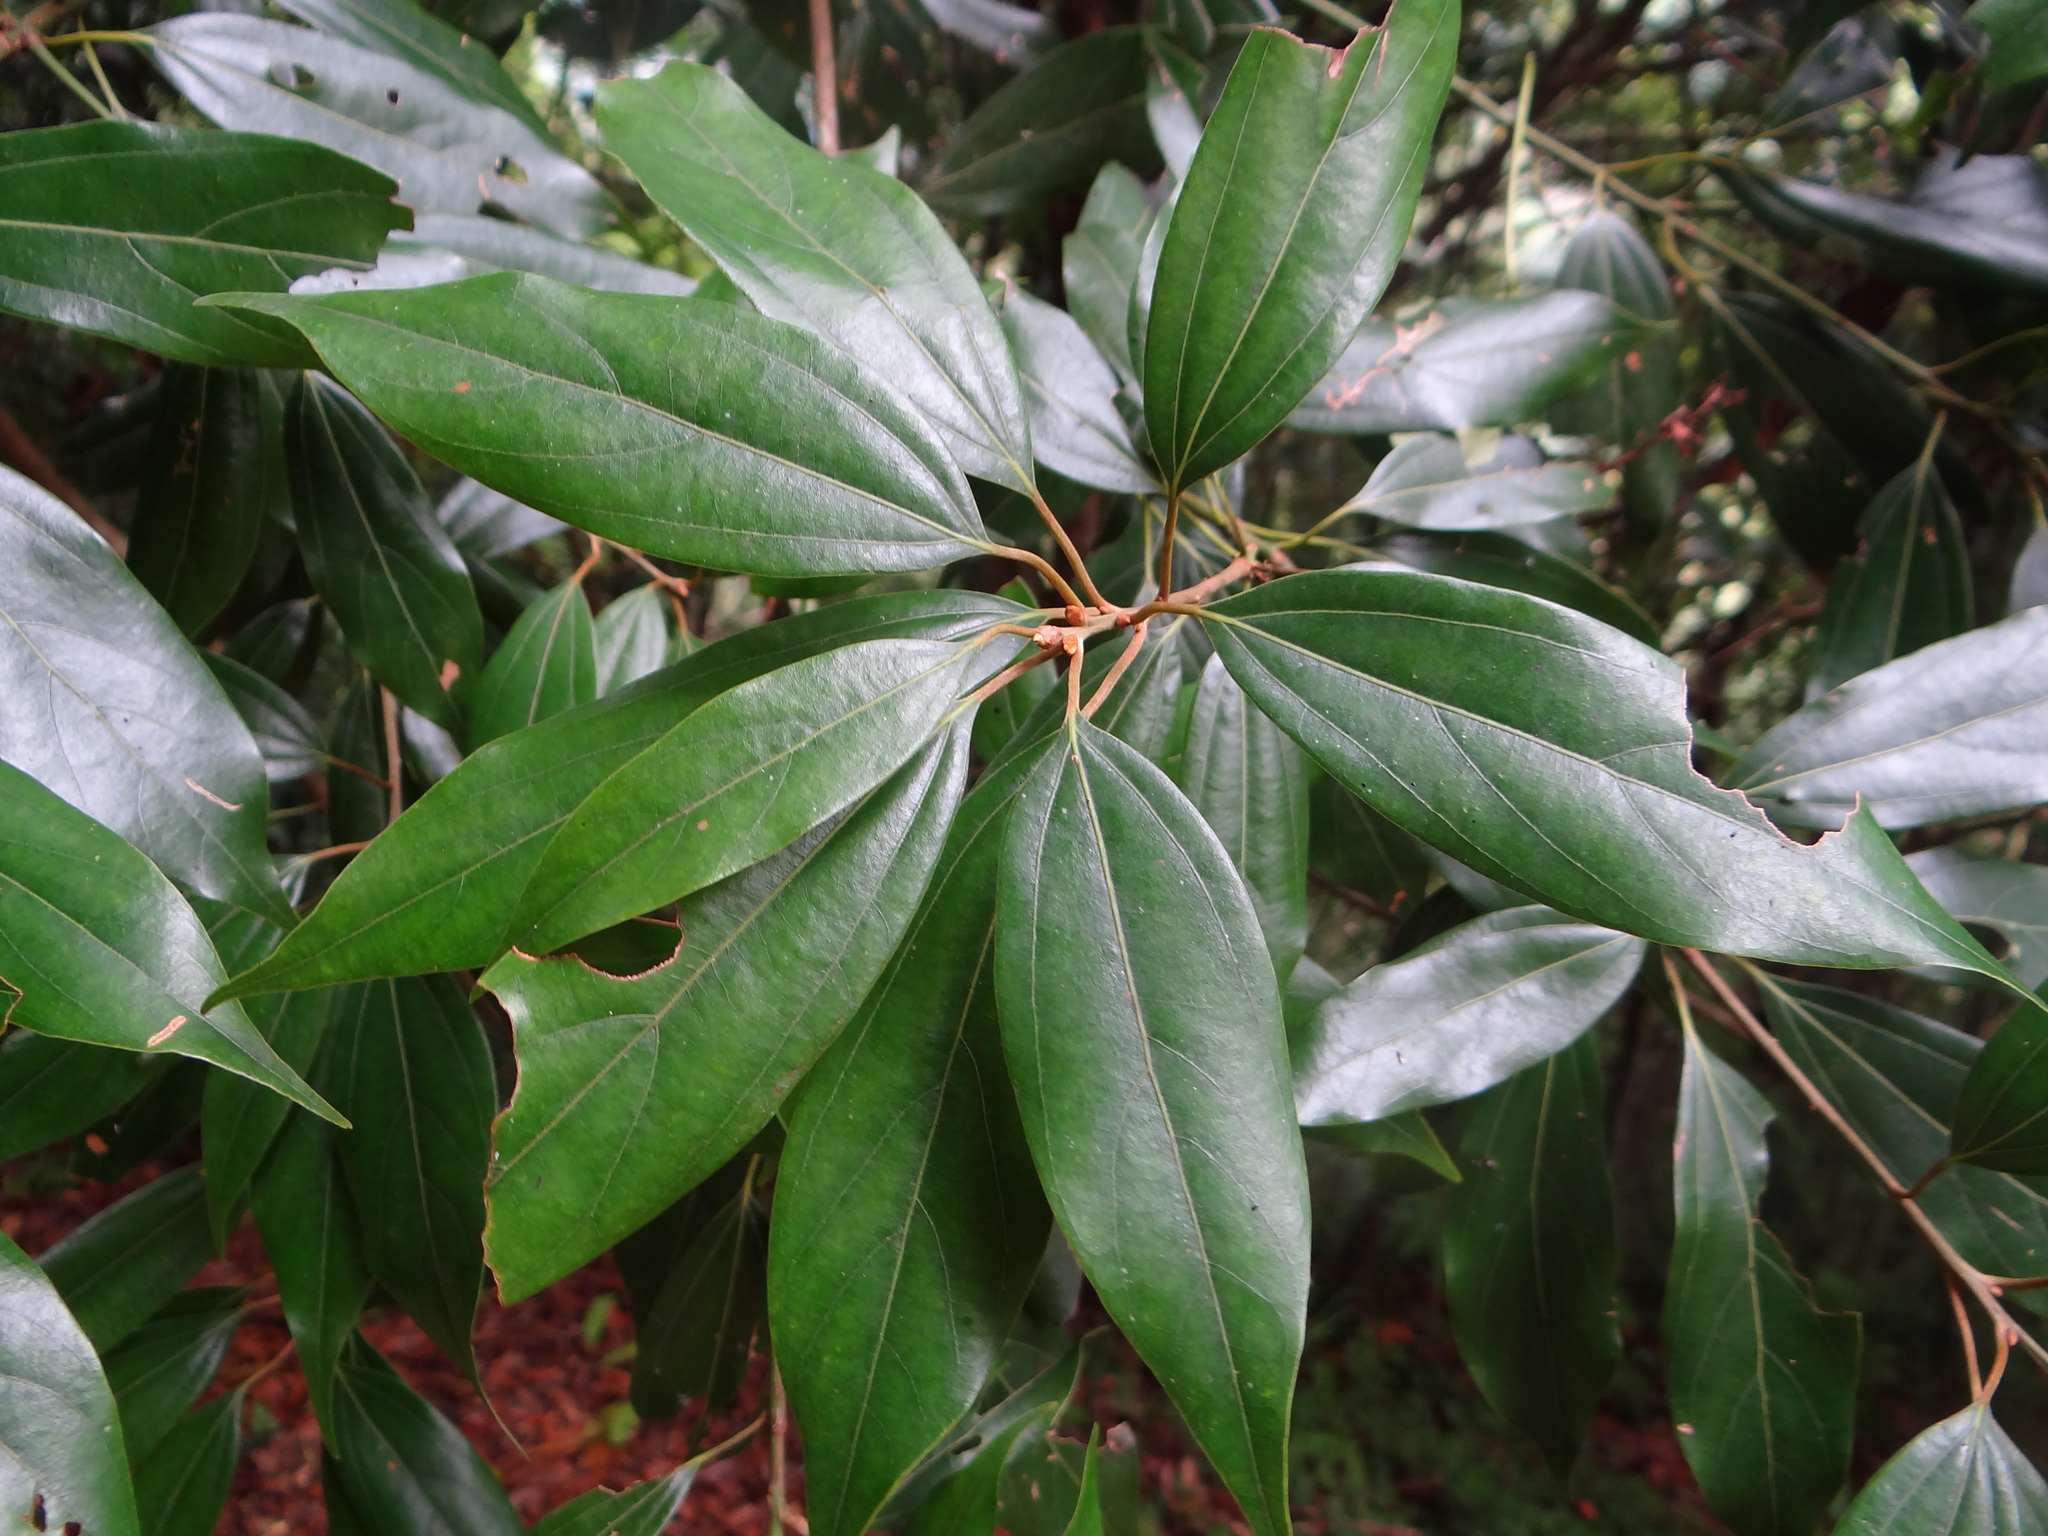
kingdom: Plantae
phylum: Tracheophyta
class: Magnoliopsida
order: Laurales
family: Lauraceae
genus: Neolitsea
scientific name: Neolitsea sericea
